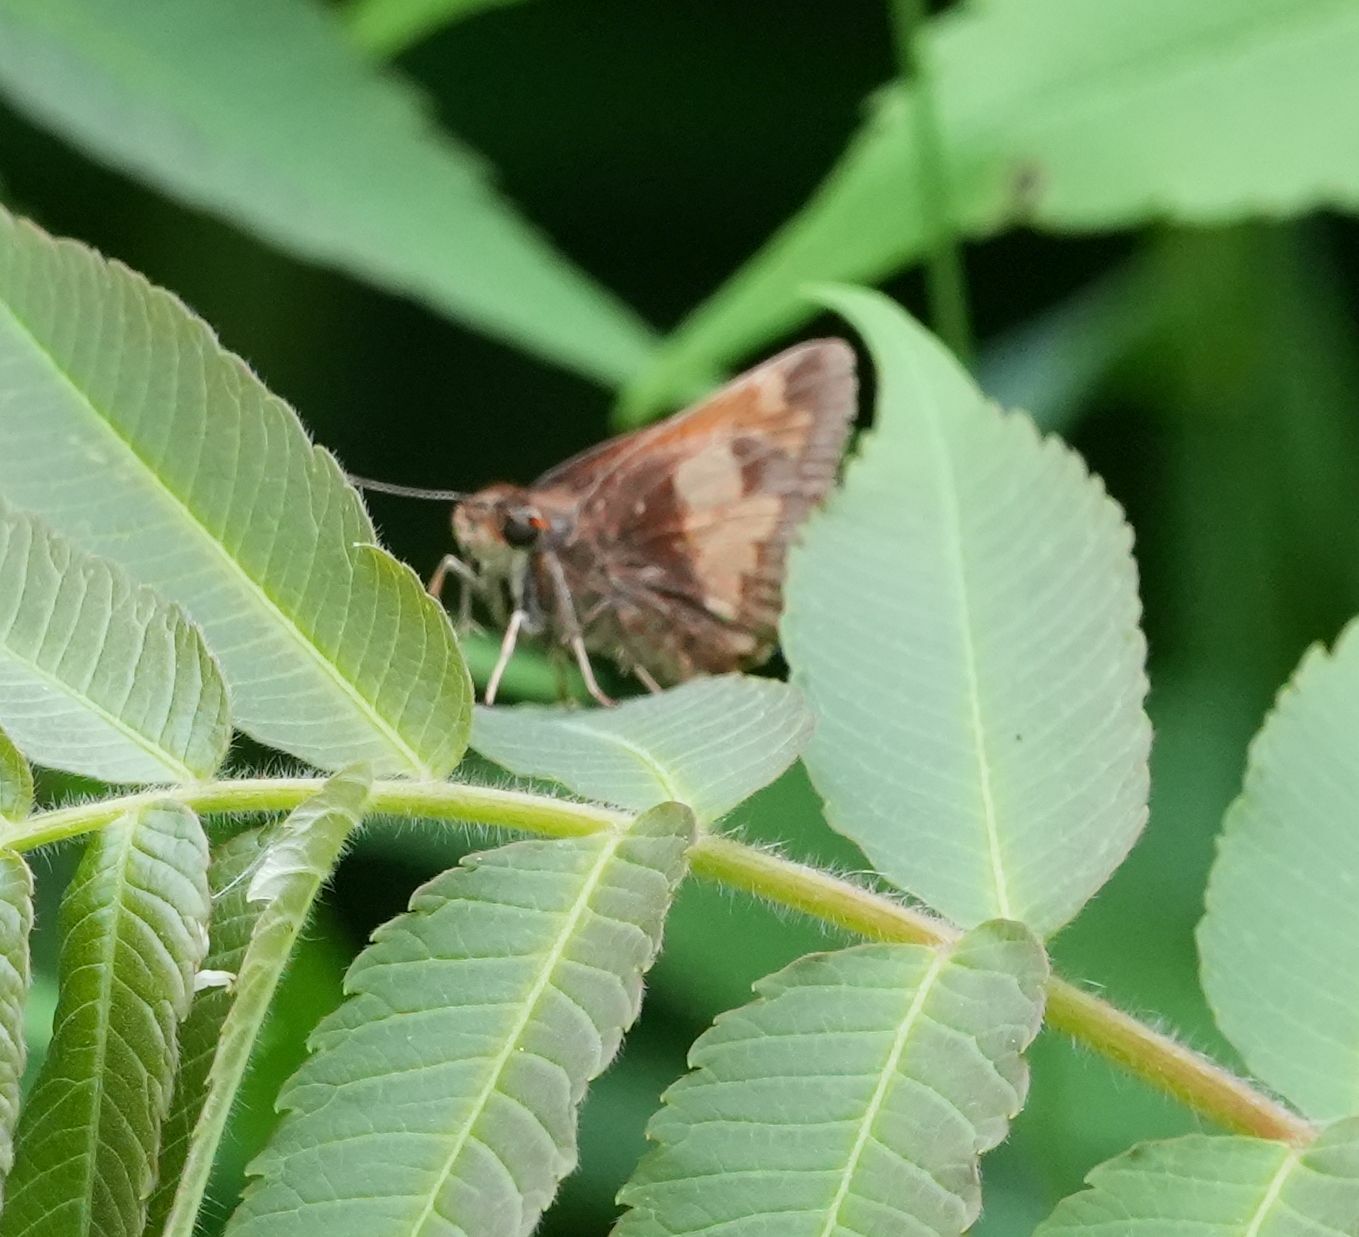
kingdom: Animalia
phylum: Arthropoda
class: Insecta
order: Lepidoptera
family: Hesperiidae
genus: Lon
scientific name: Lon hobomok
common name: Hobomok skipper
